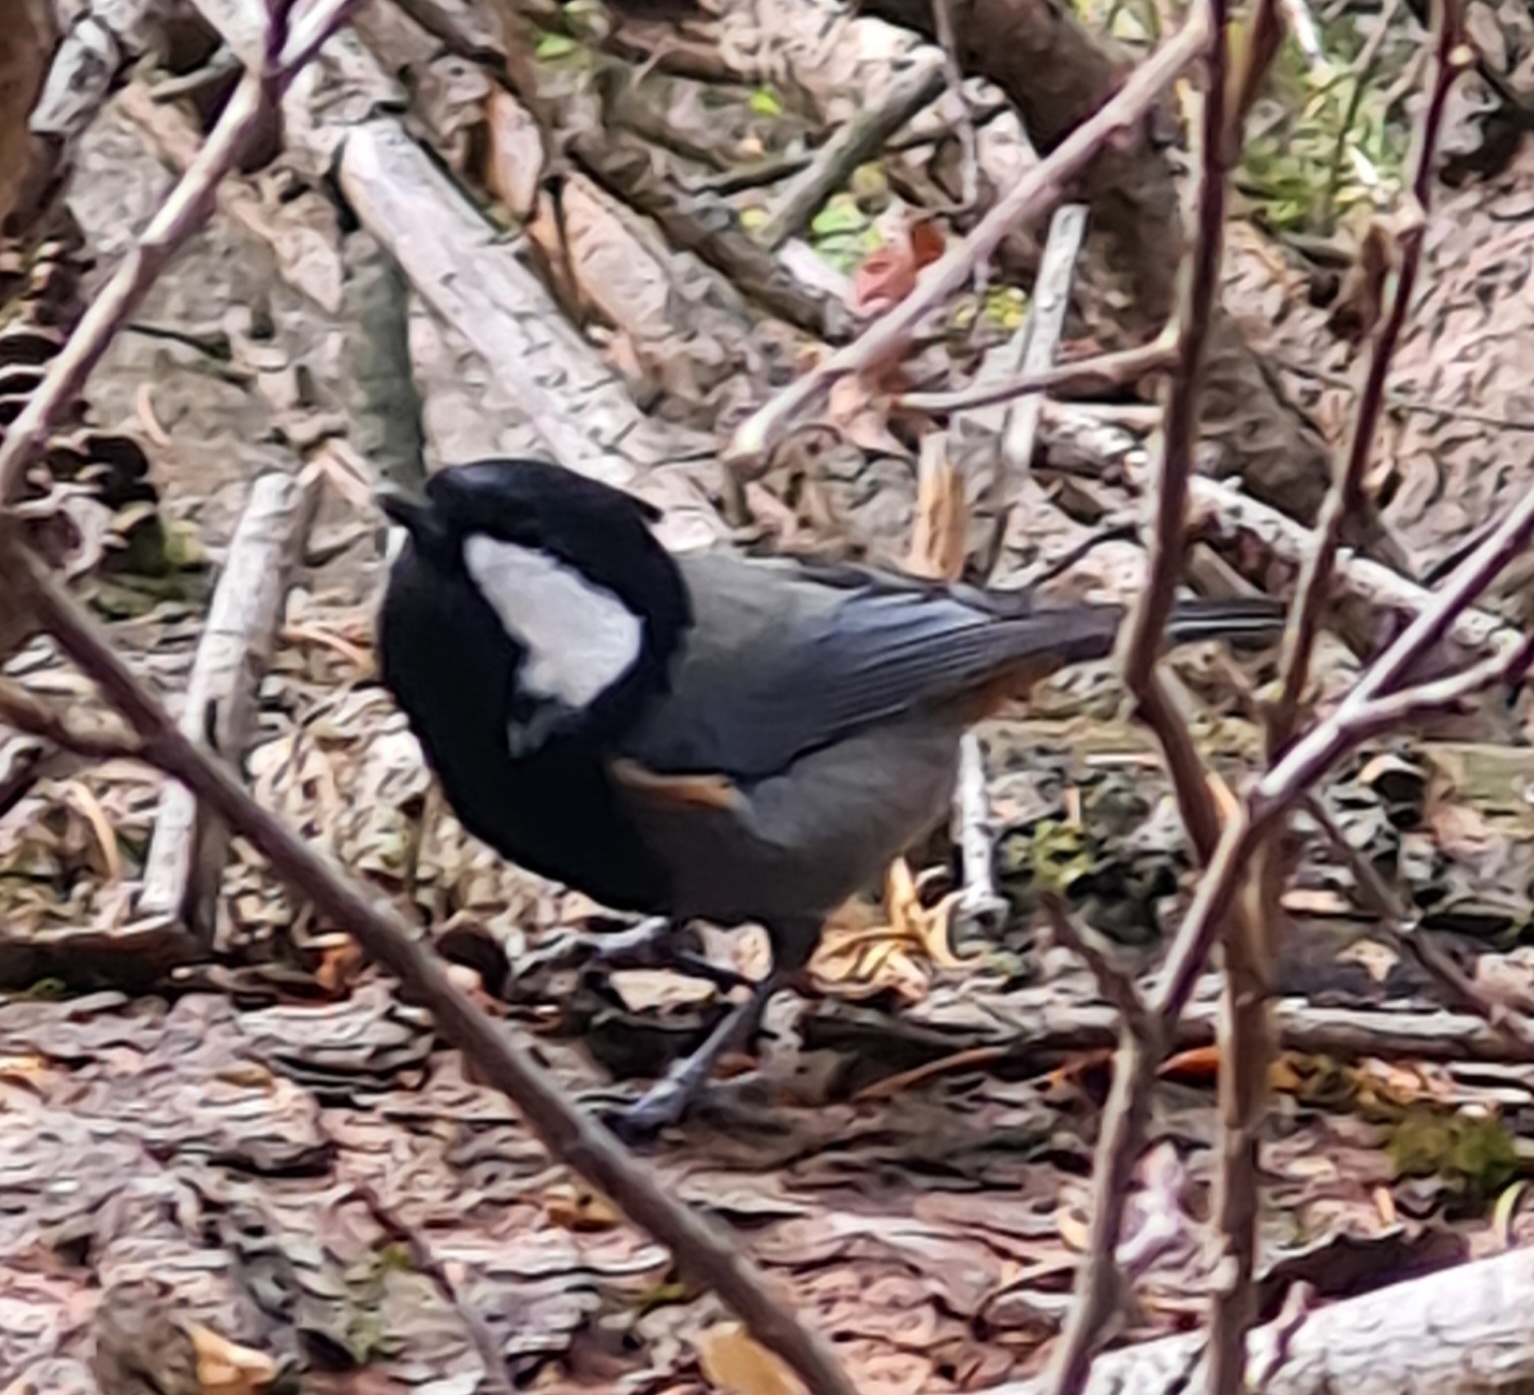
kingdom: Animalia
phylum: Chordata
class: Aves
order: Passeriformes
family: Paridae
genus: Periparus
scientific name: Periparus rufonuchalis
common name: Rufous-naped tit
